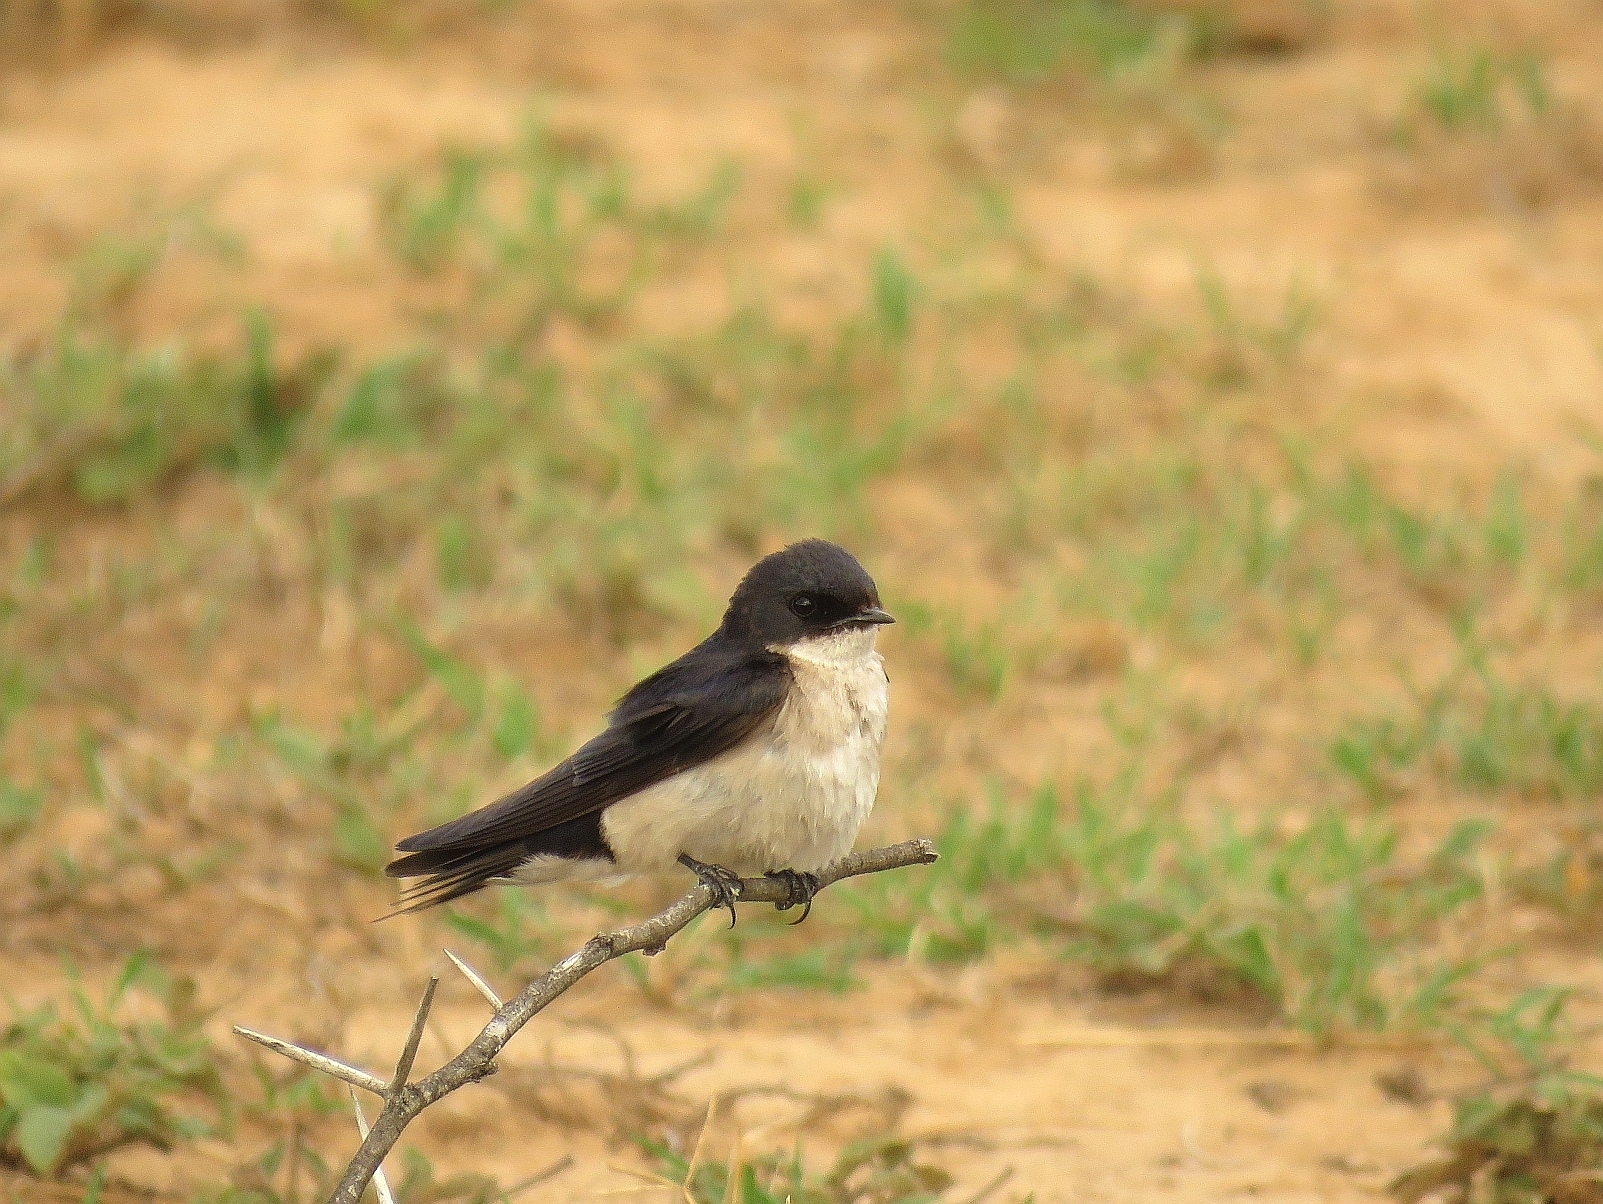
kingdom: Animalia
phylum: Chordata
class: Aves
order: Passeriformes
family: Hirundinidae
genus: Hirundo
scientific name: Hirundo dimidiata
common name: Pearl-breasted swallow
